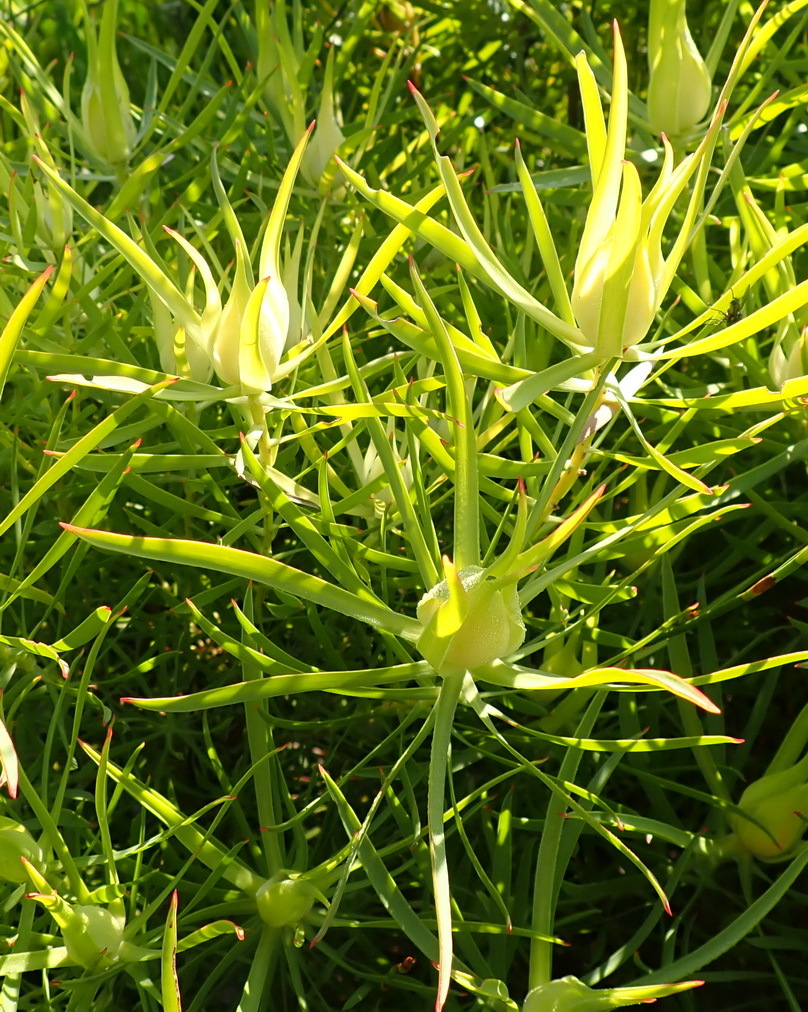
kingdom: Plantae
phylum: Tracheophyta
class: Magnoliopsida
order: Proteales
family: Proteaceae
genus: Leucadendron
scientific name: Leucadendron salignum
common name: Common sunshine conebush
